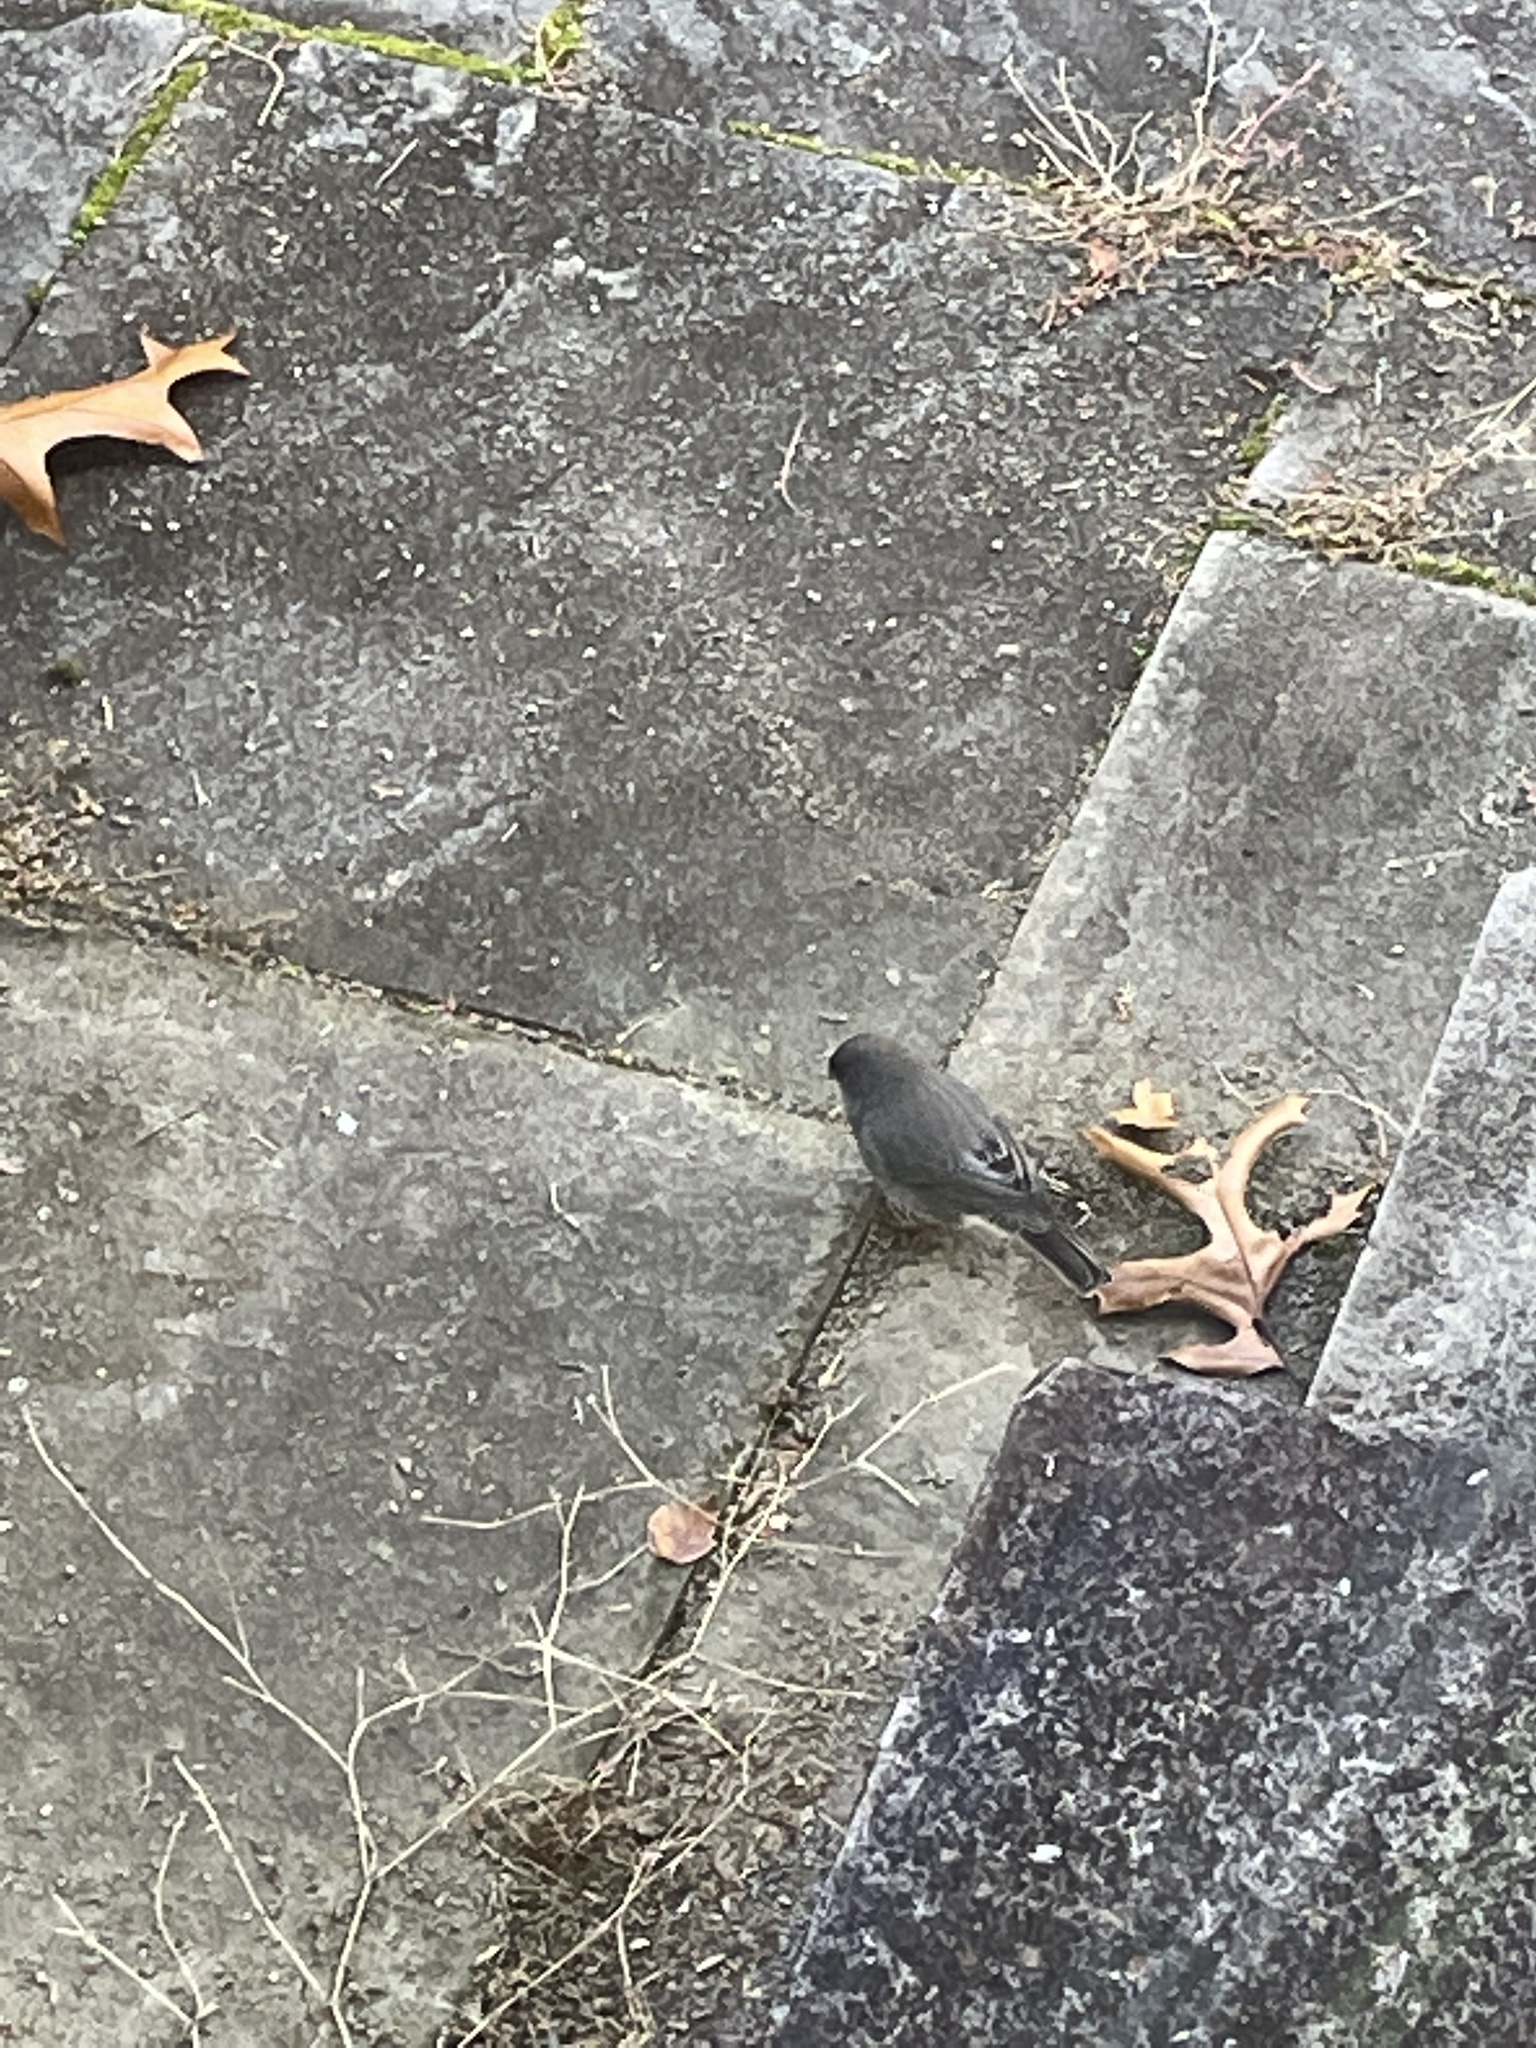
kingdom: Animalia
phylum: Chordata
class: Aves
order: Passeriformes
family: Passerellidae
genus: Junco
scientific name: Junco hyemalis
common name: Dark-eyed junco
